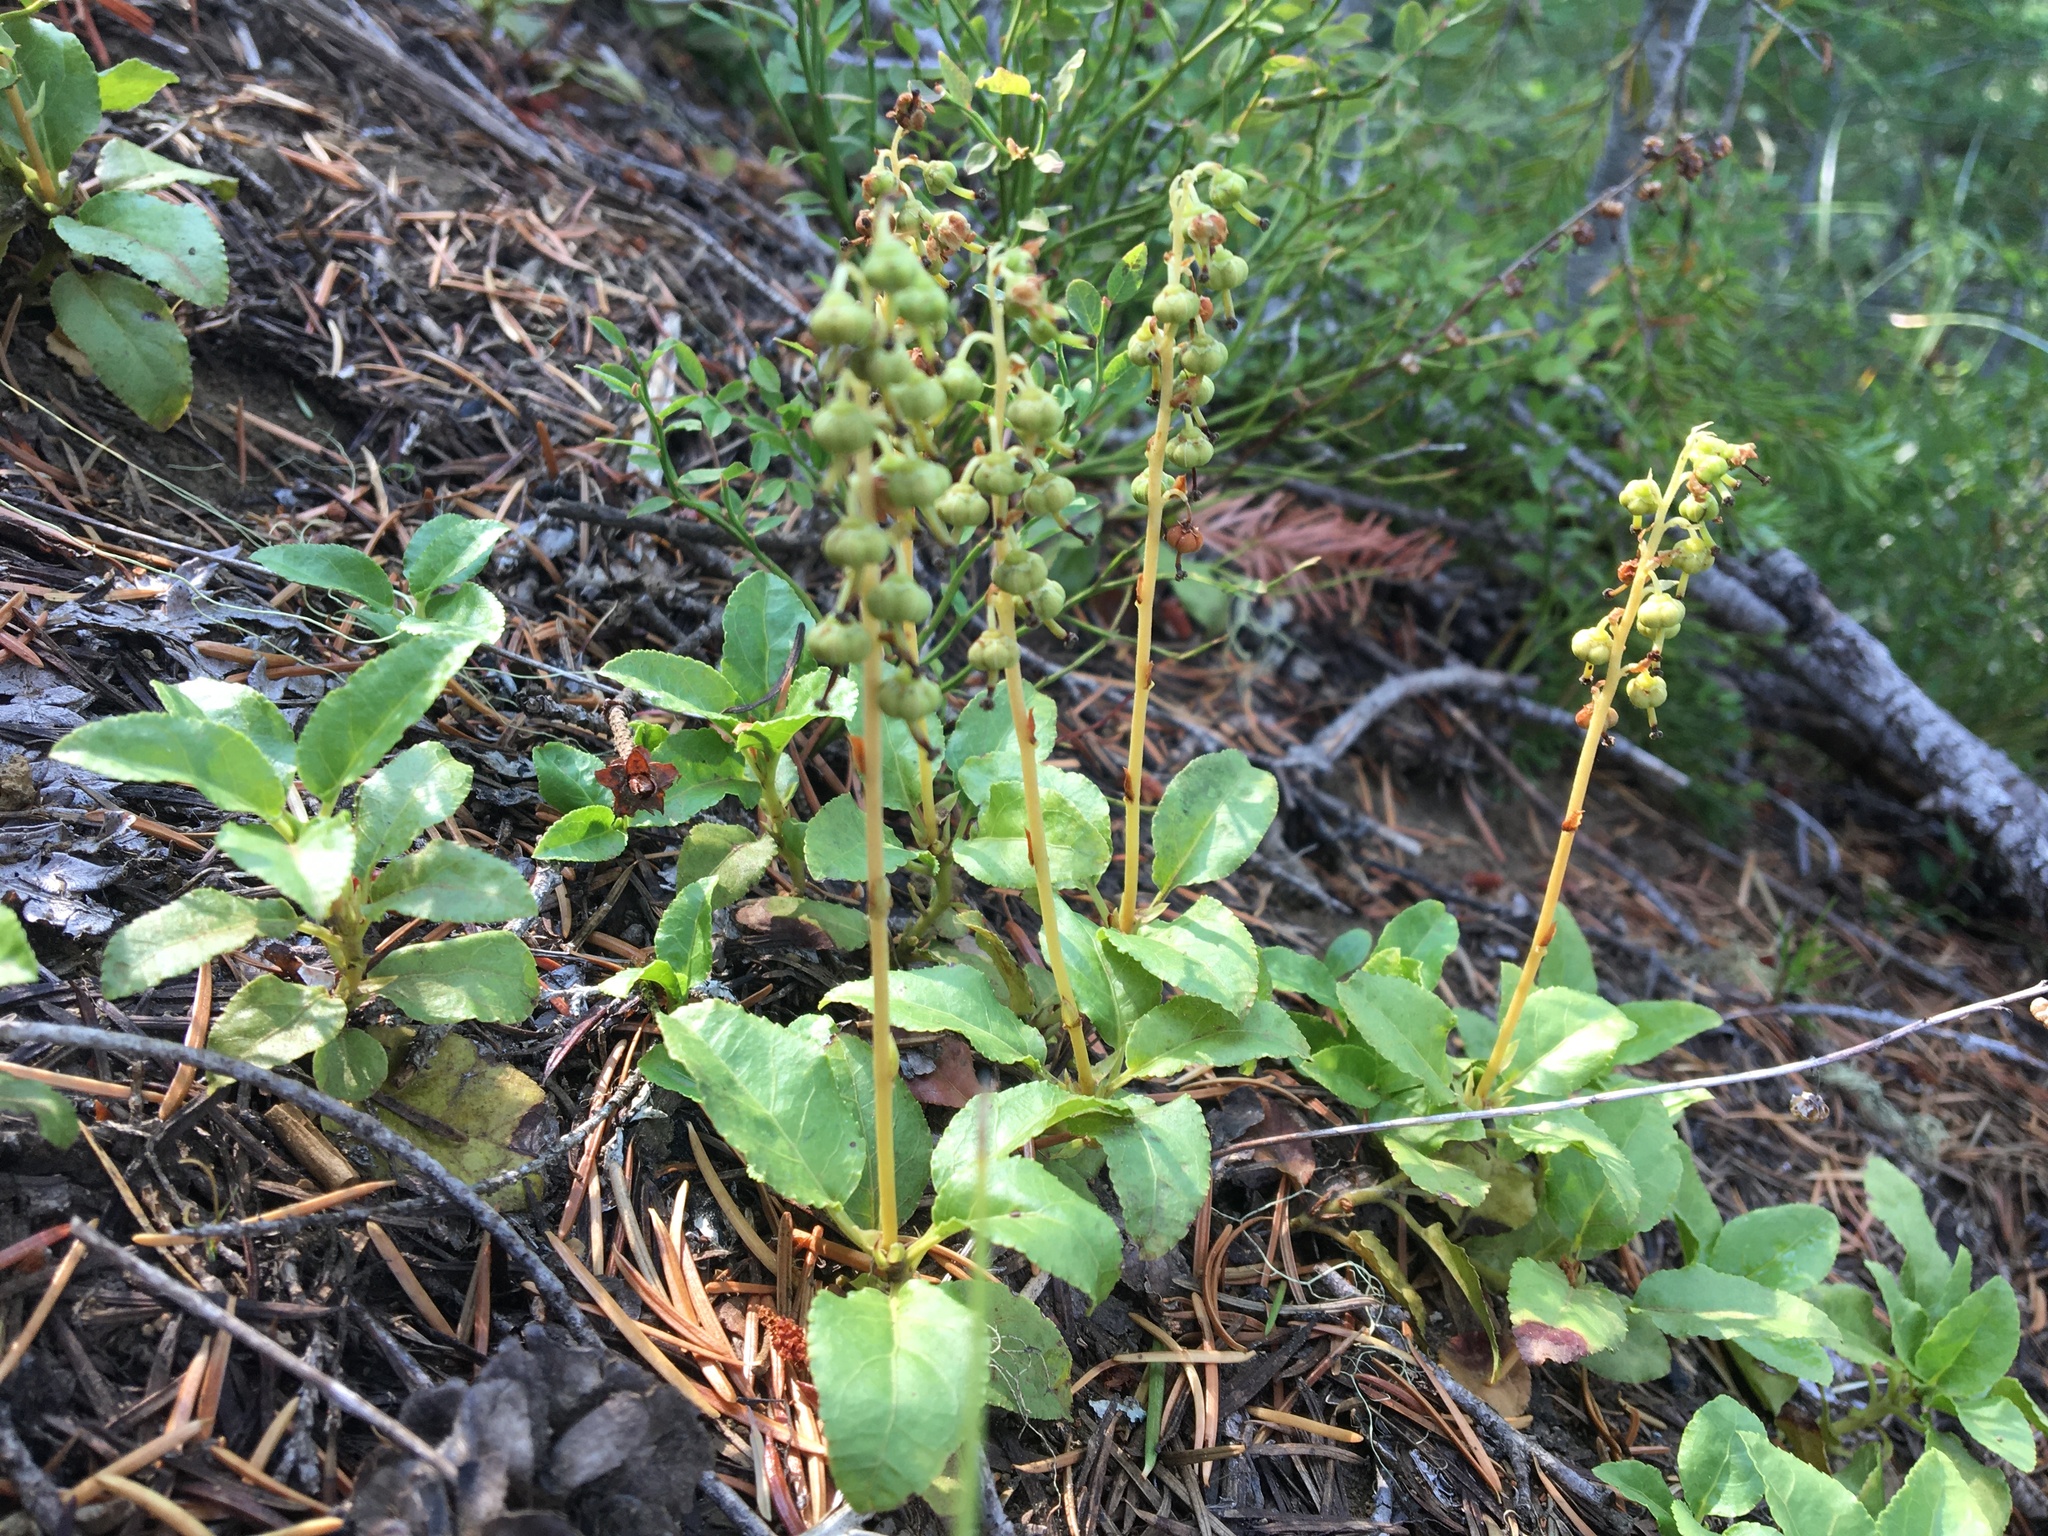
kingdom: Plantae
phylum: Tracheophyta
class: Magnoliopsida
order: Ericales
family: Ericaceae
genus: Orthilia
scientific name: Orthilia secunda
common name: One-sided orthilia
